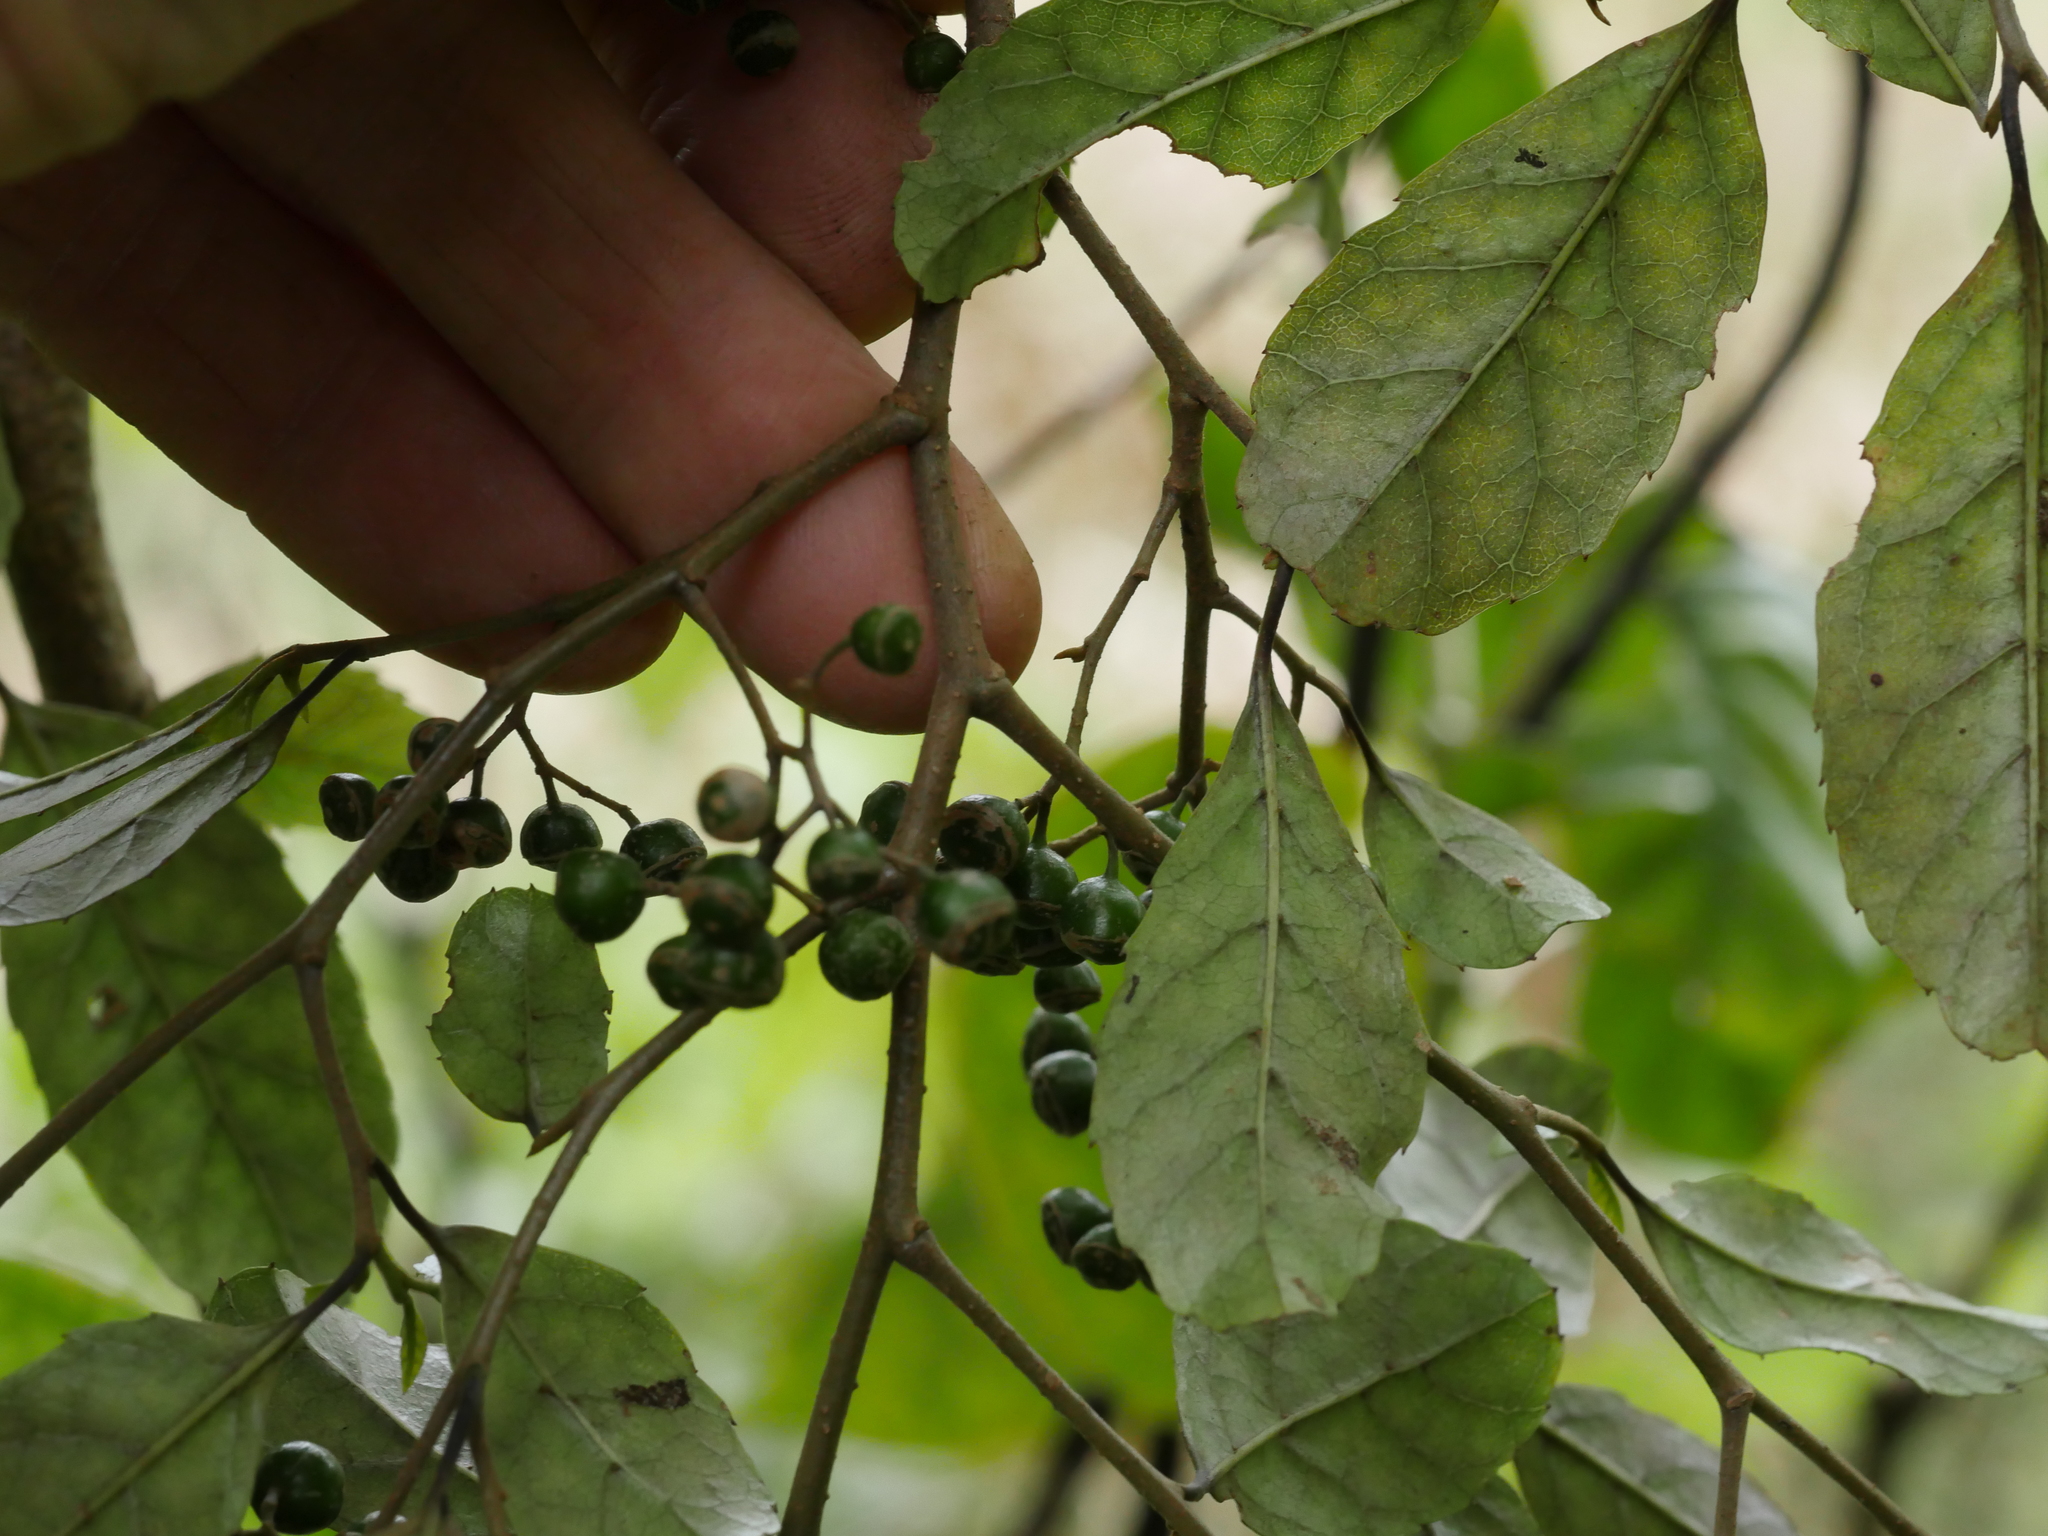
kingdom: Plantae
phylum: Tracheophyta
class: Magnoliopsida
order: Asterales
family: Rousseaceae
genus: Carpodetus
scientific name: Carpodetus serratus
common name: White mapau
